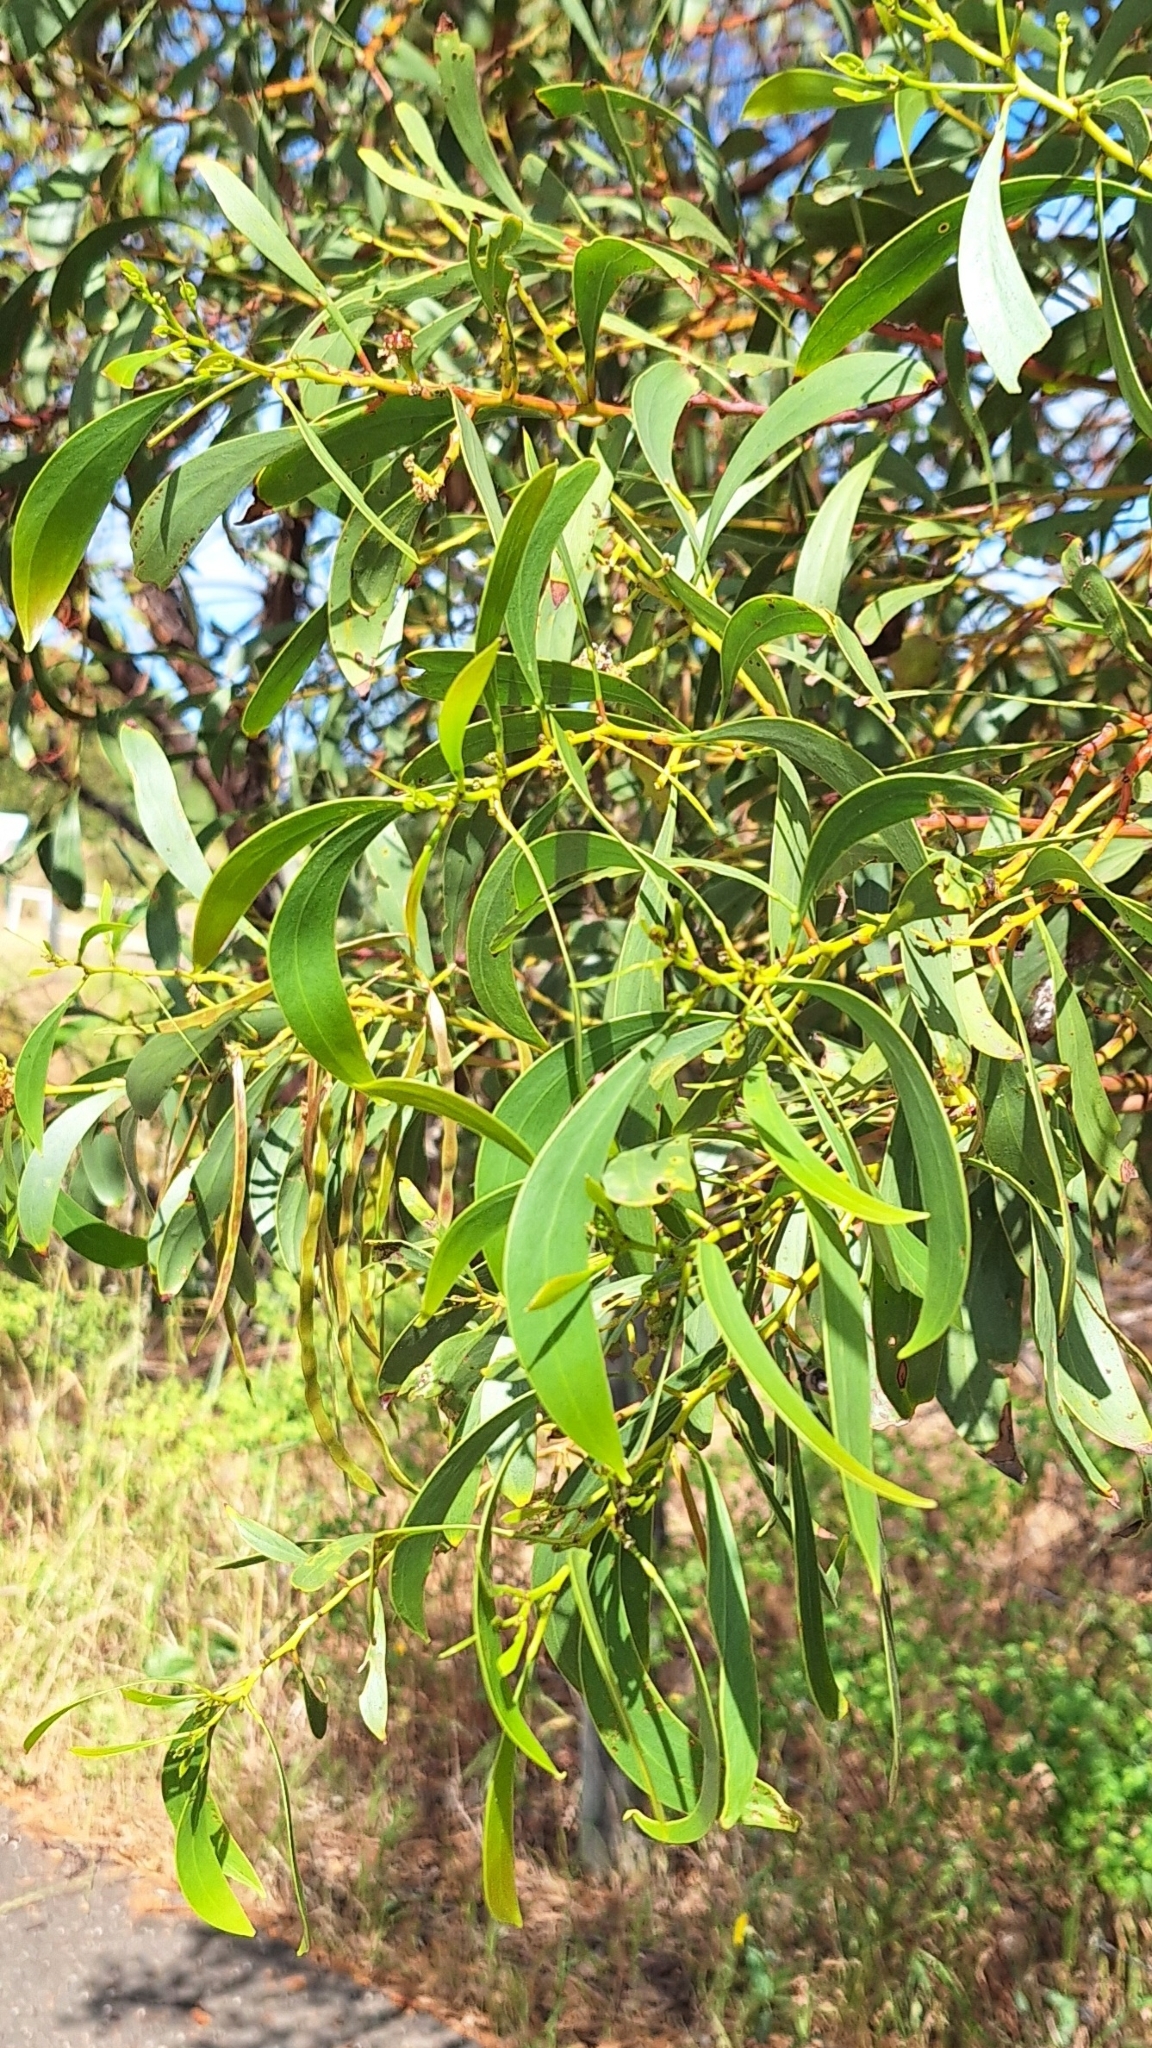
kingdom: Plantae
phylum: Tracheophyta
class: Magnoliopsida
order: Fabales
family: Fabaceae
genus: Acacia
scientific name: Acacia pycnantha
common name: Golden wattle
